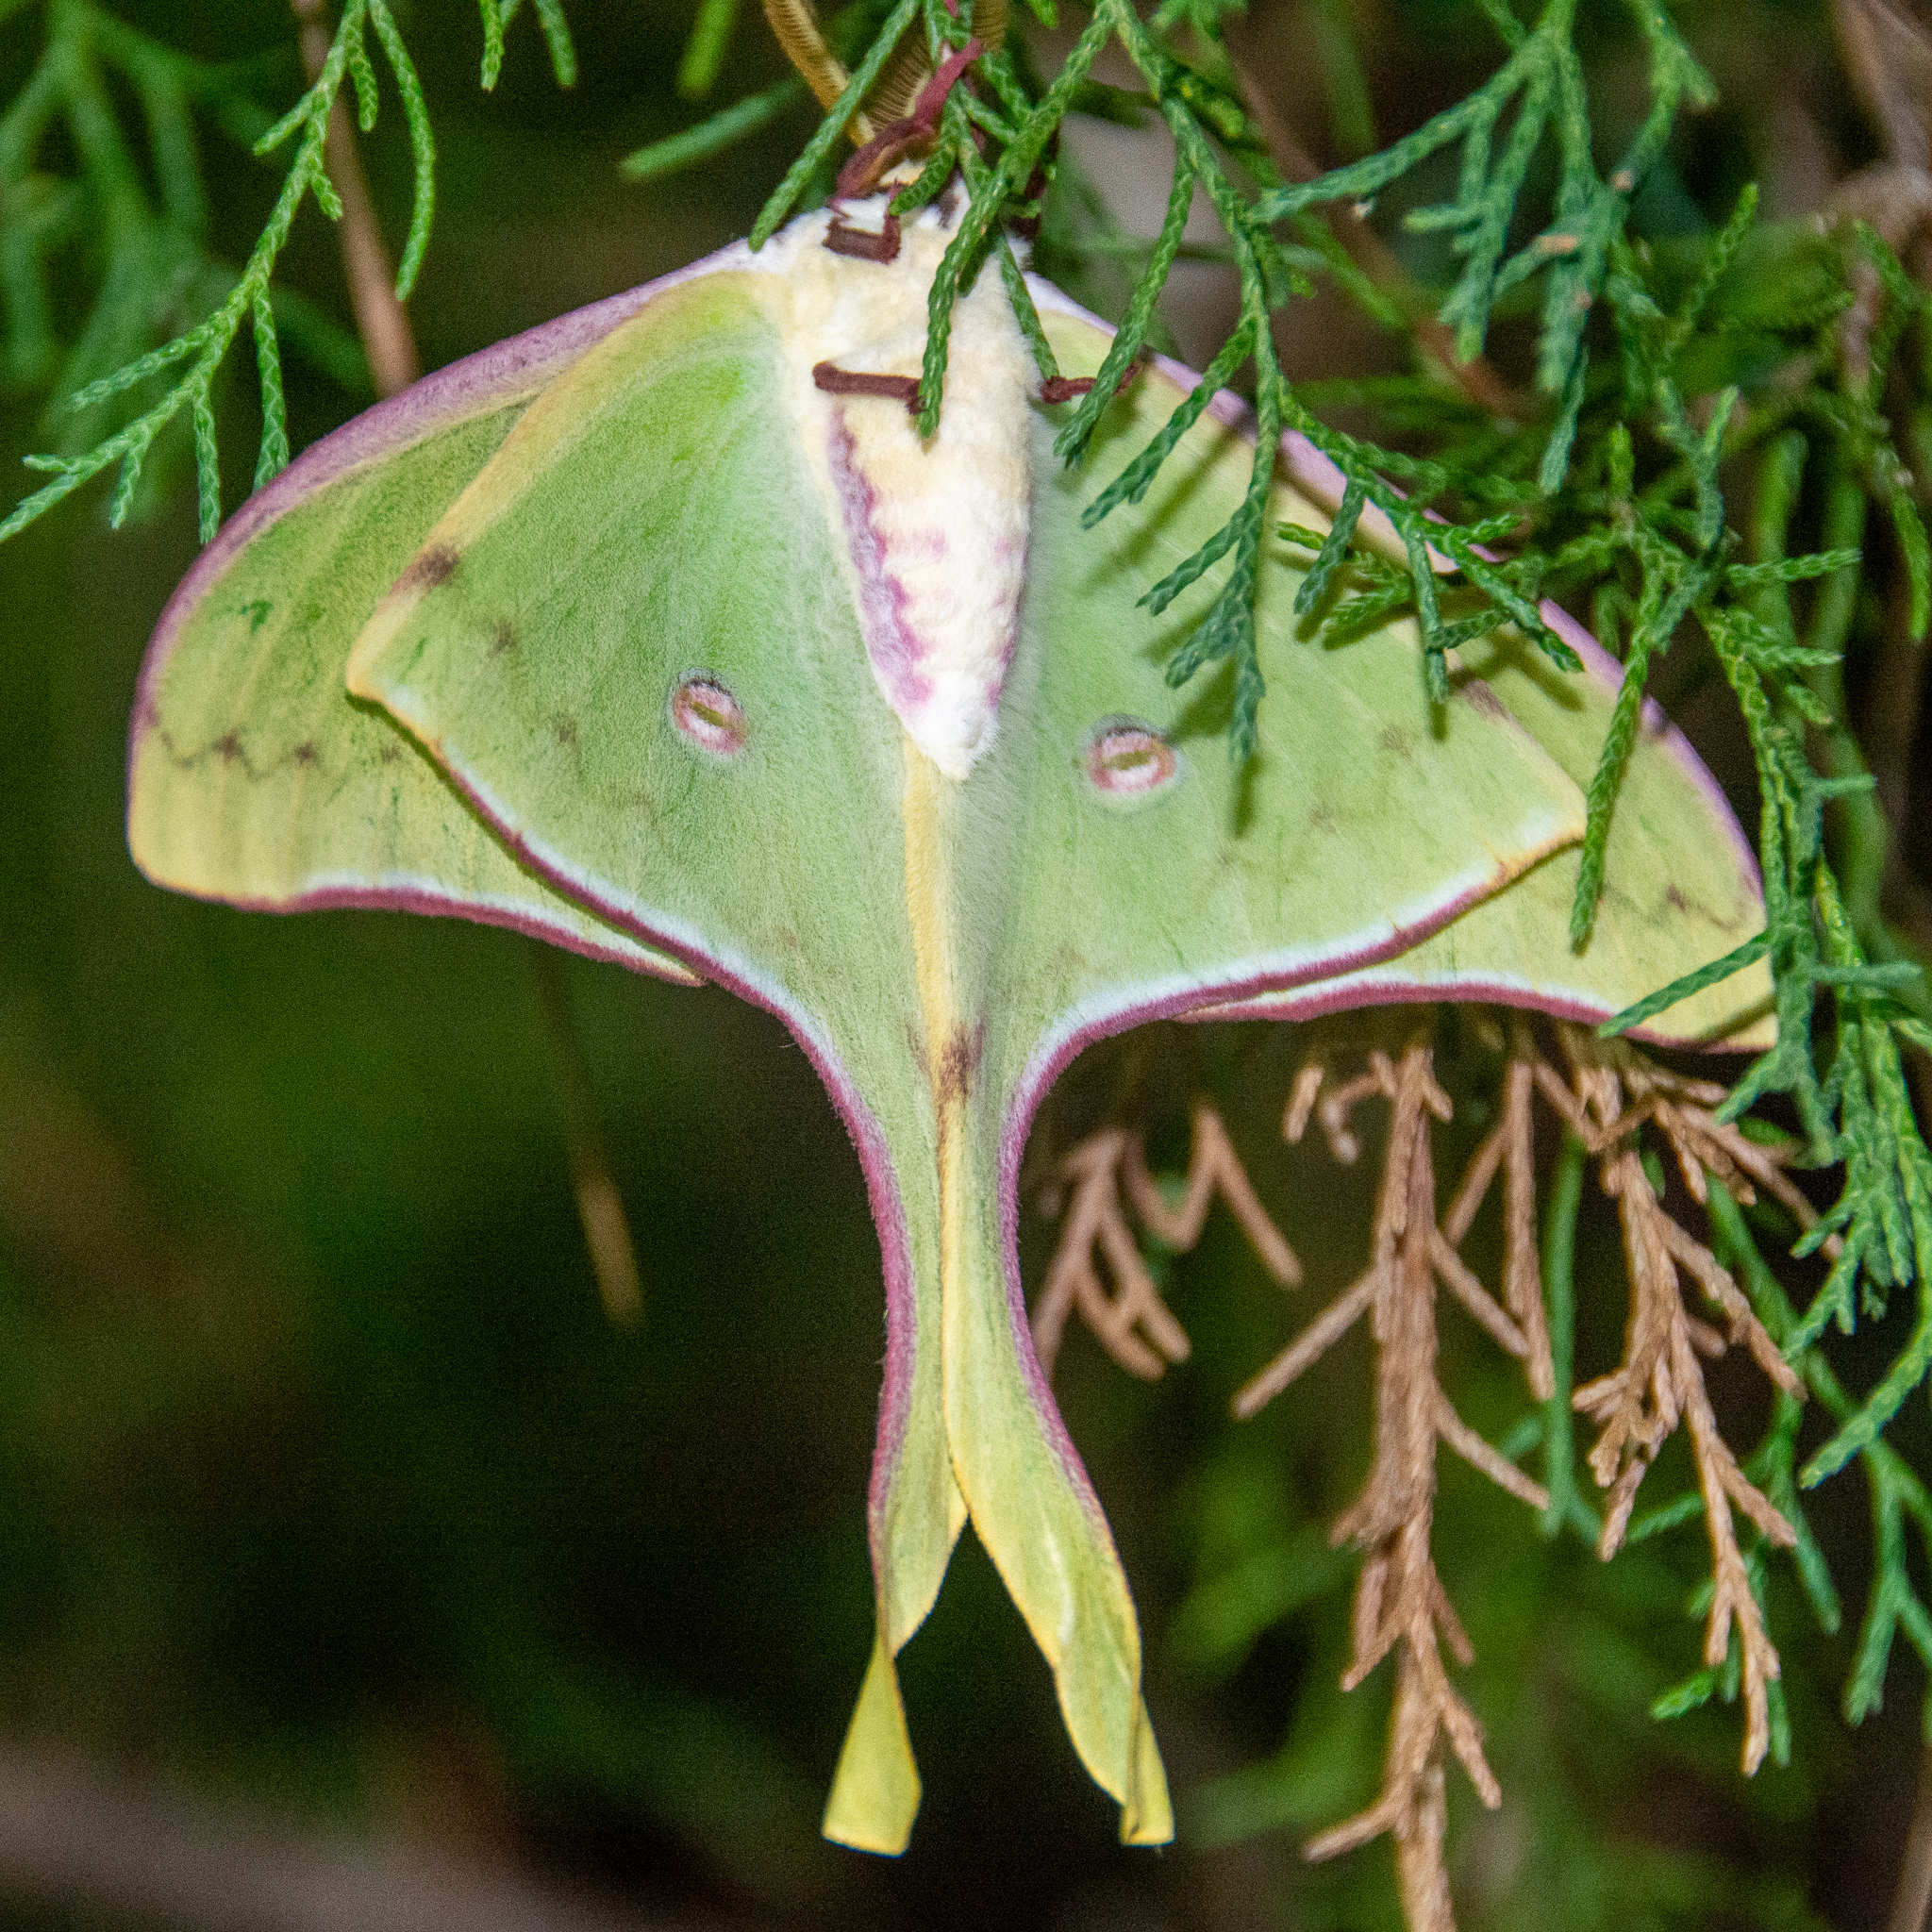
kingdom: Animalia
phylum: Arthropoda
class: Insecta
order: Lepidoptera
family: Saturniidae
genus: Actias
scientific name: Actias luna
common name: Luna moth
